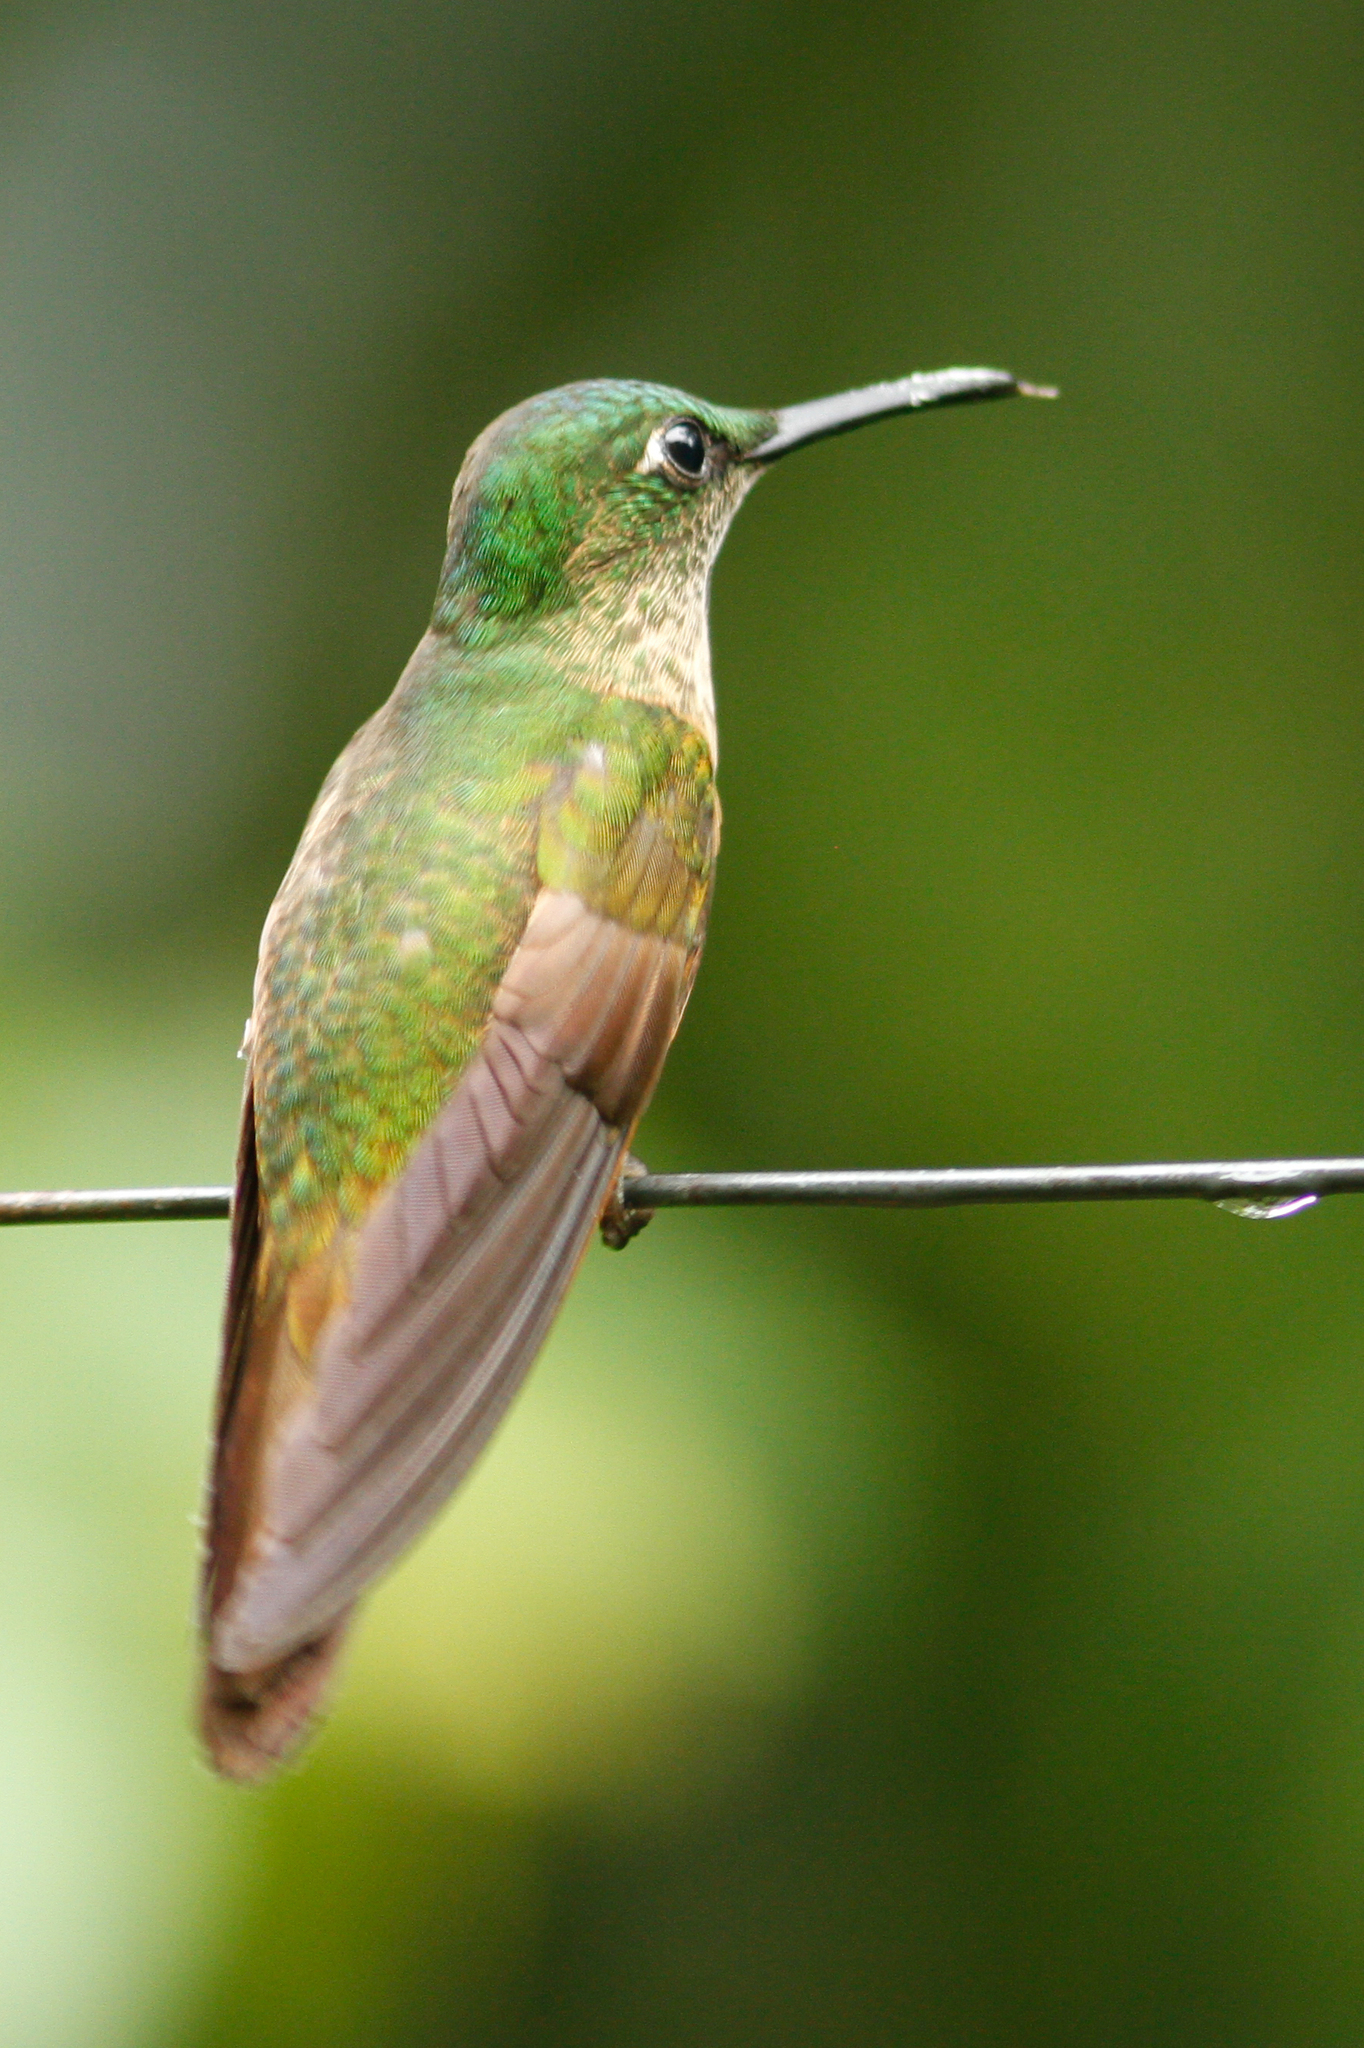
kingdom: Animalia
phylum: Chordata
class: Aves
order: Apodiformes
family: Trochilidae
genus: Uranomitra
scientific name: Uranomitra franciae
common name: Andean emerald
